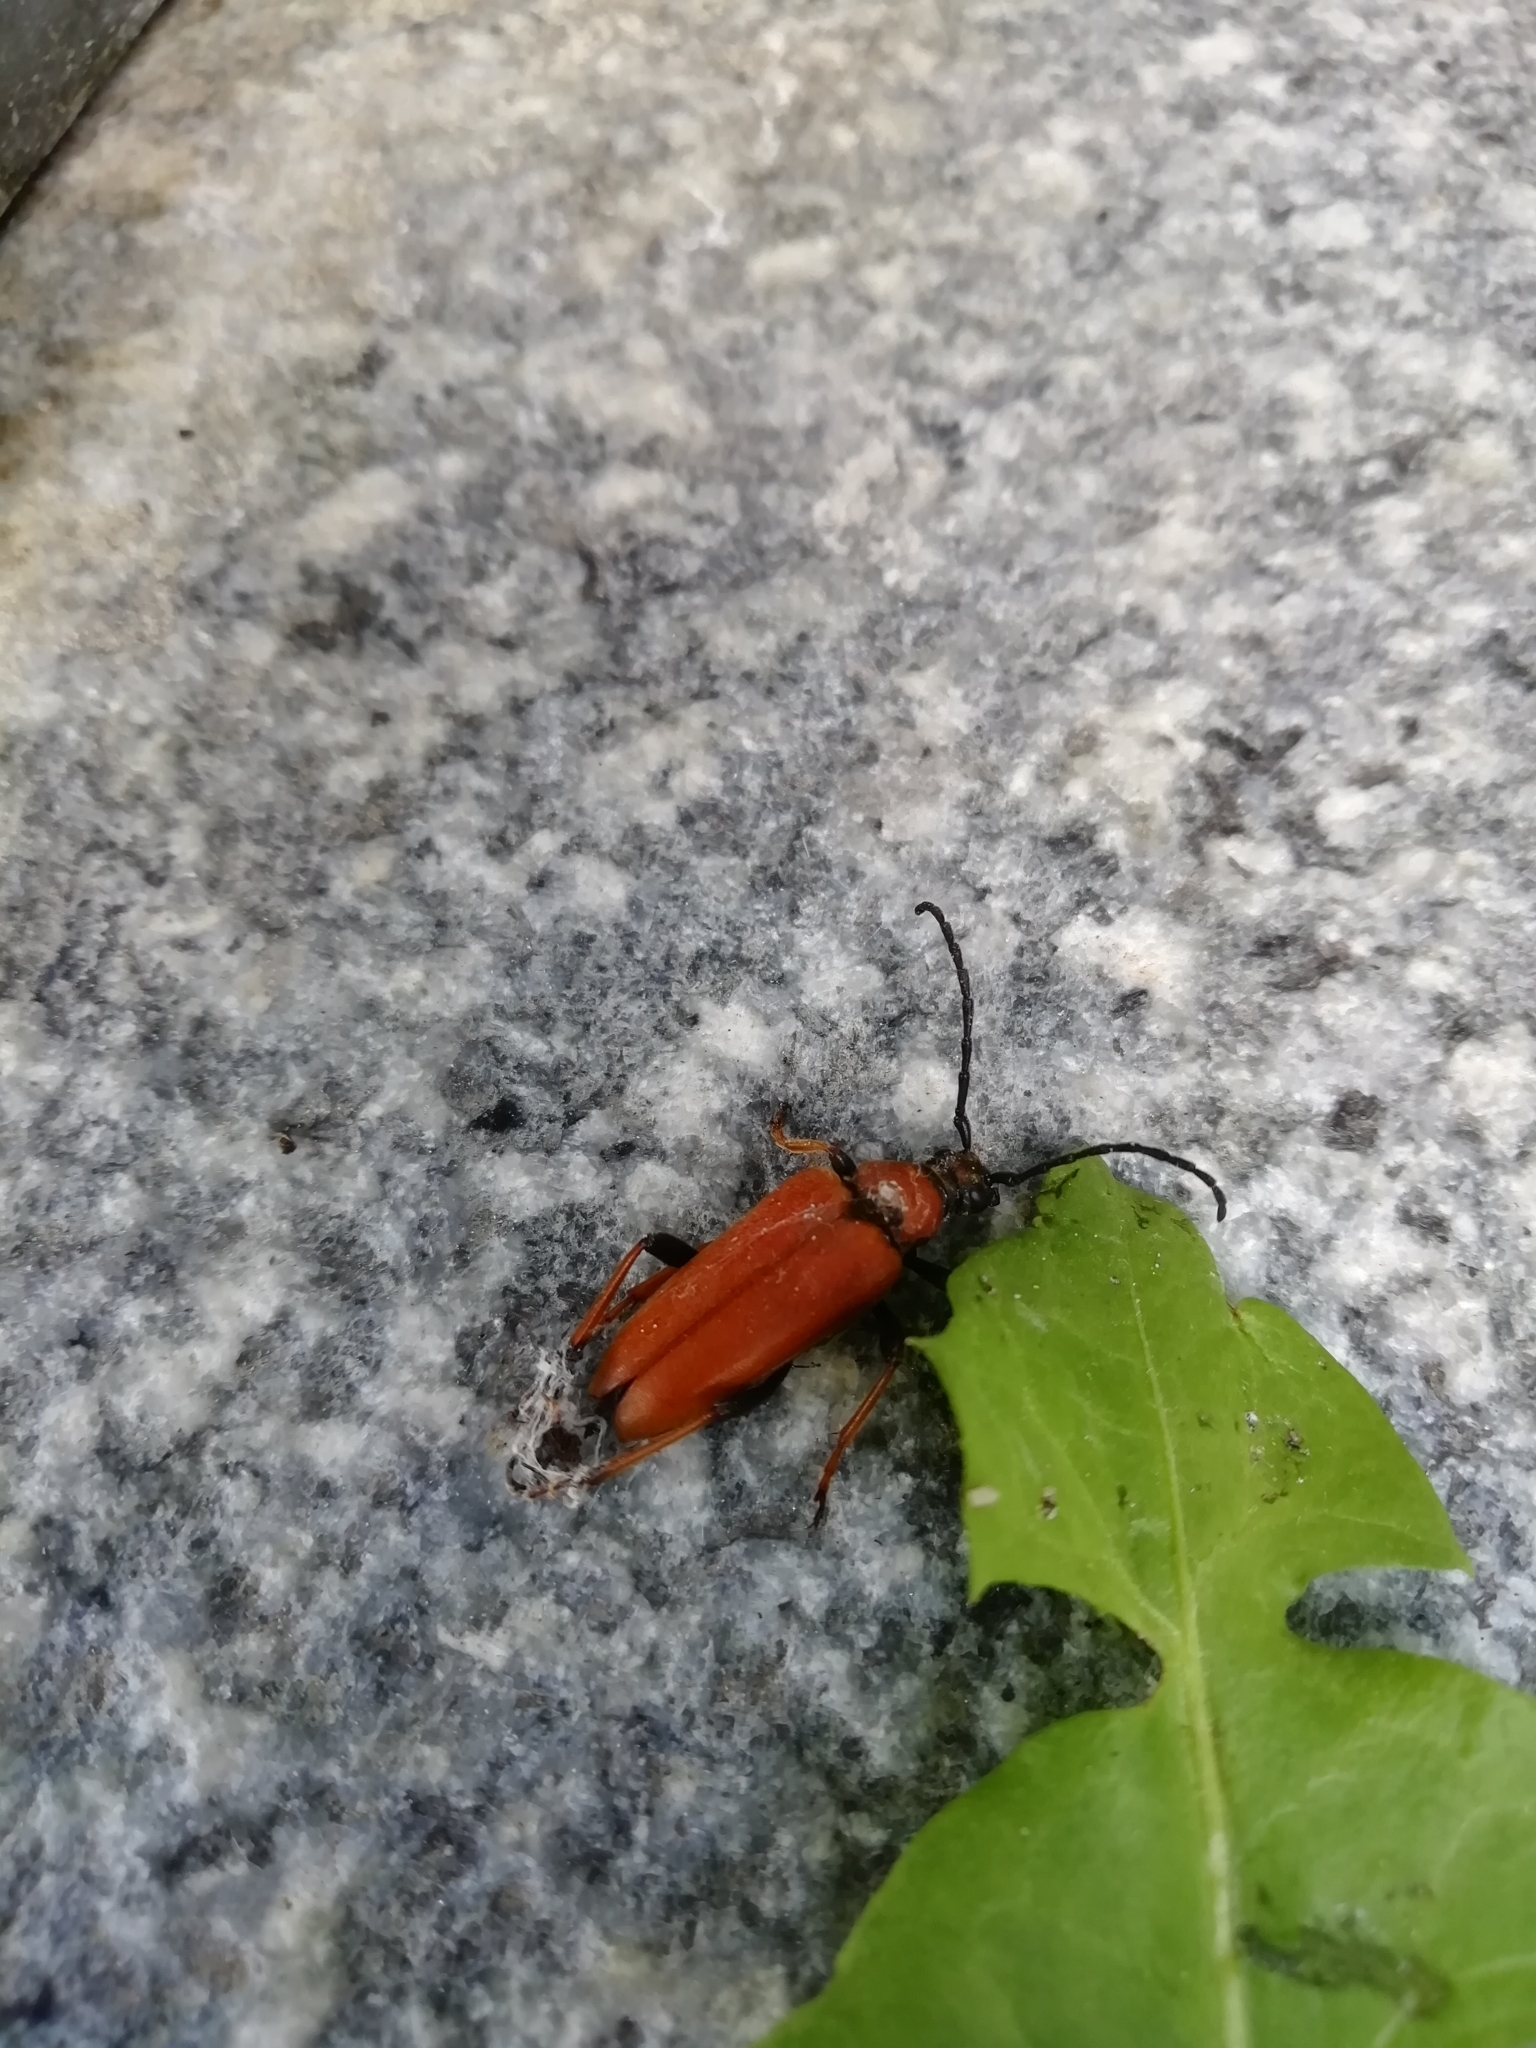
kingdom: Animalia
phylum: Arthropoda
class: Insecta
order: Coleoptera
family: Cerambycidae
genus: Stictoleptura
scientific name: Stictoleptura rubra
